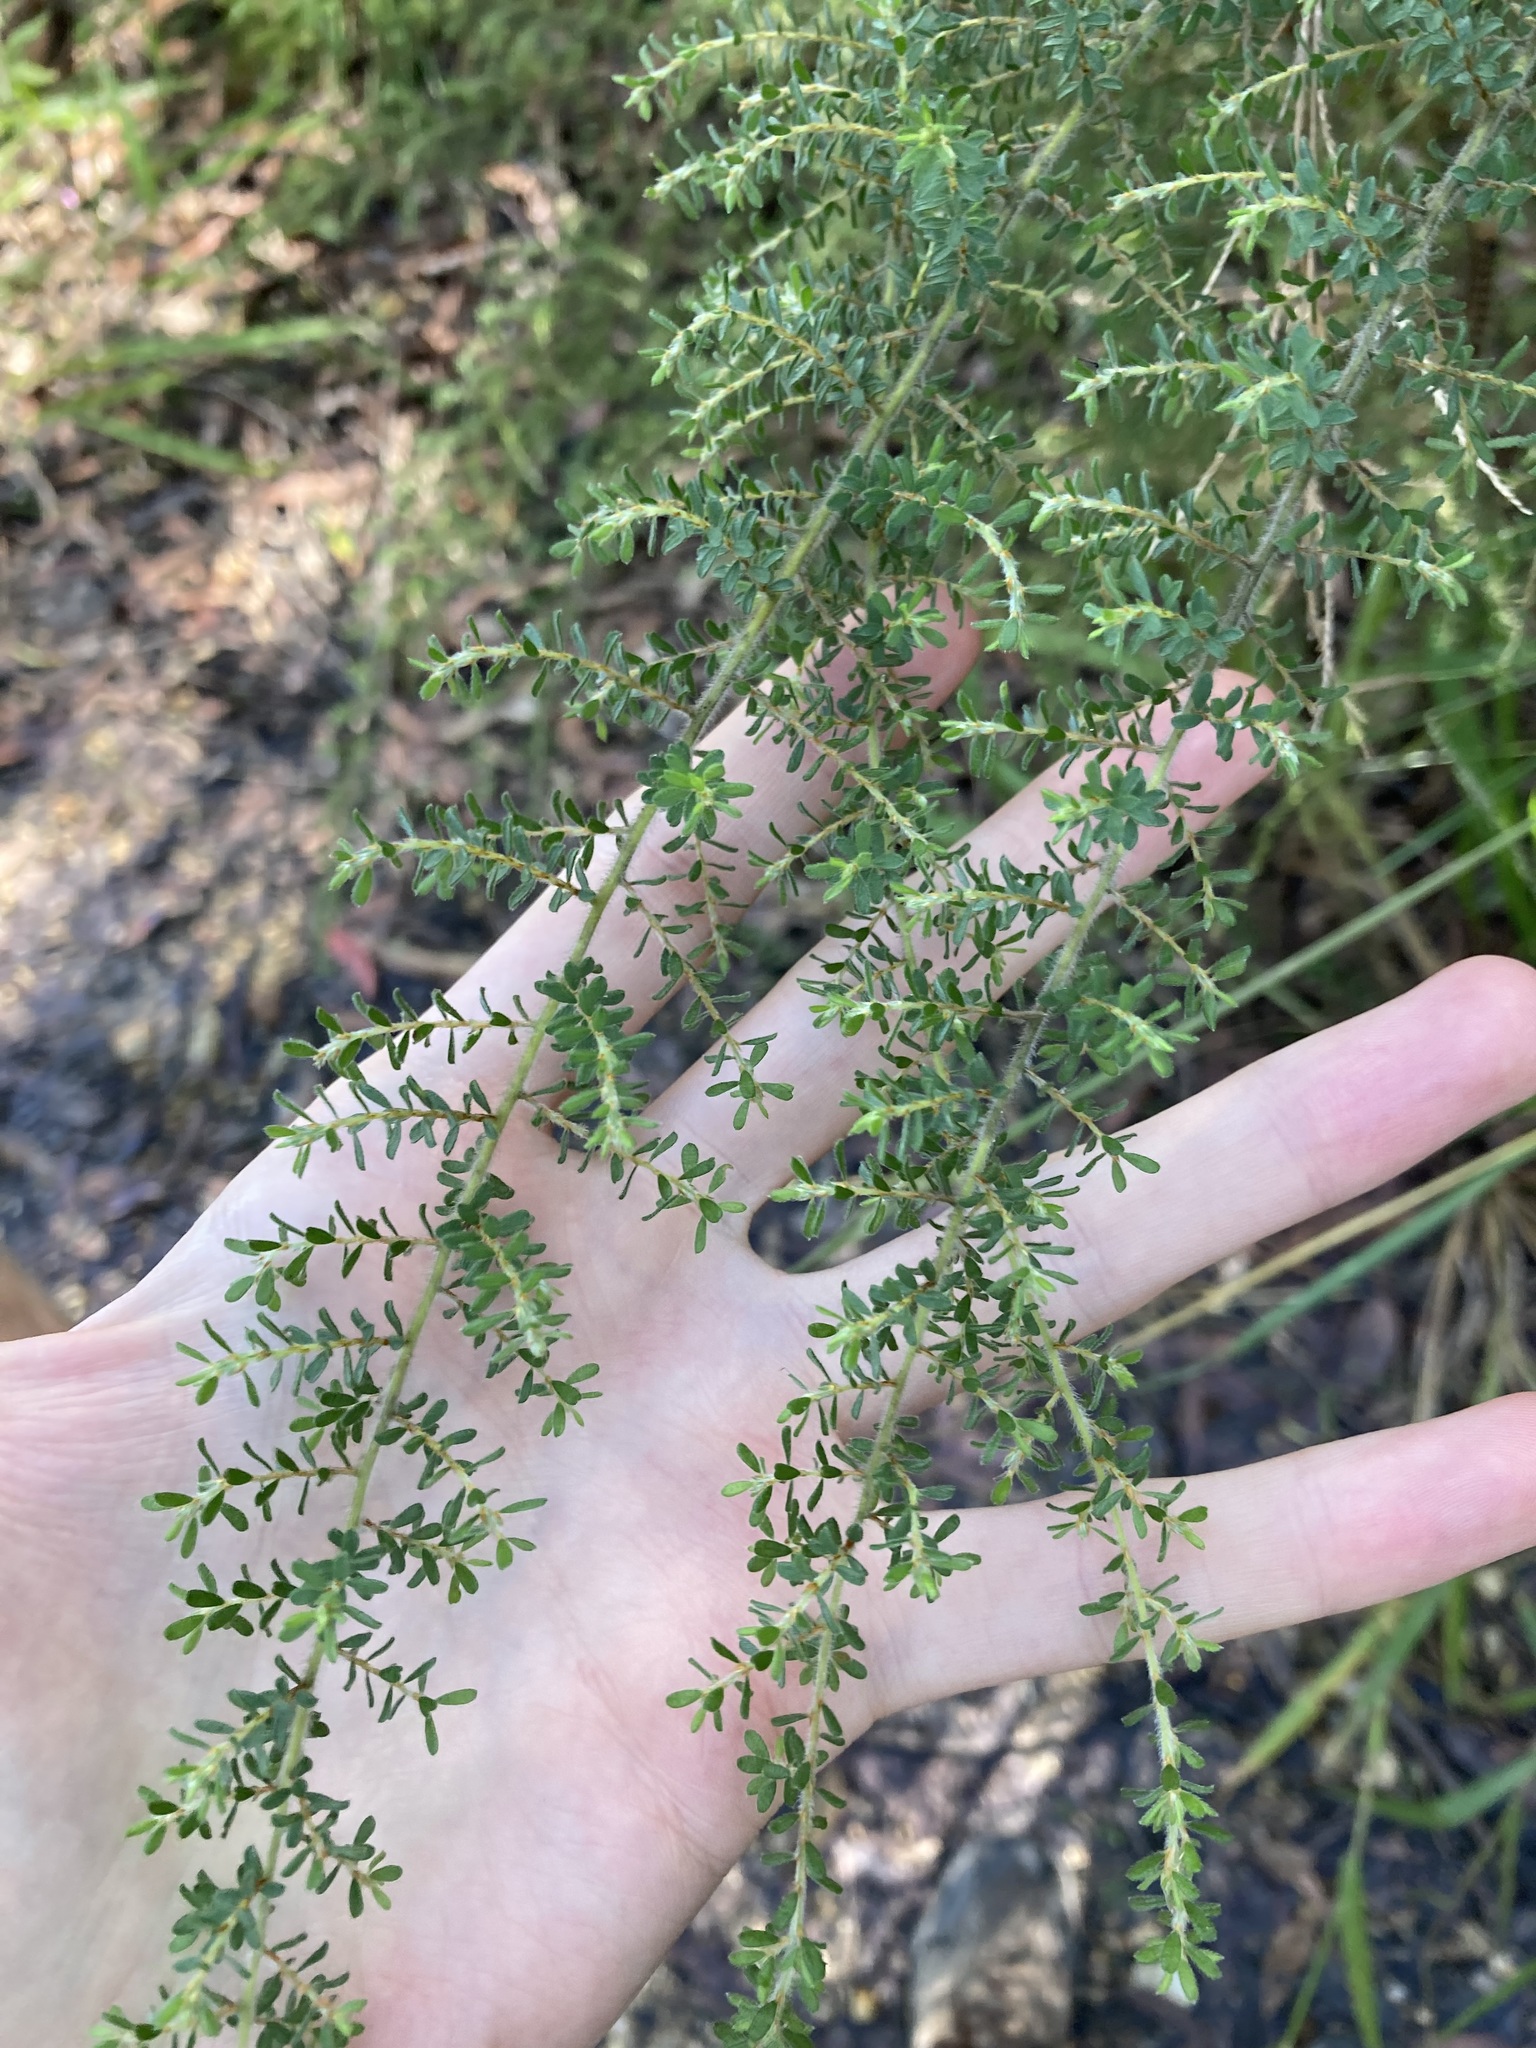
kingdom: Plantae
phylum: Tracheophyta
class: Magnoliopsida
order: Fabales
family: Fabaceae
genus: Pultenaea
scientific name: Pultenaea villosa
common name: Bronze bush-pea
